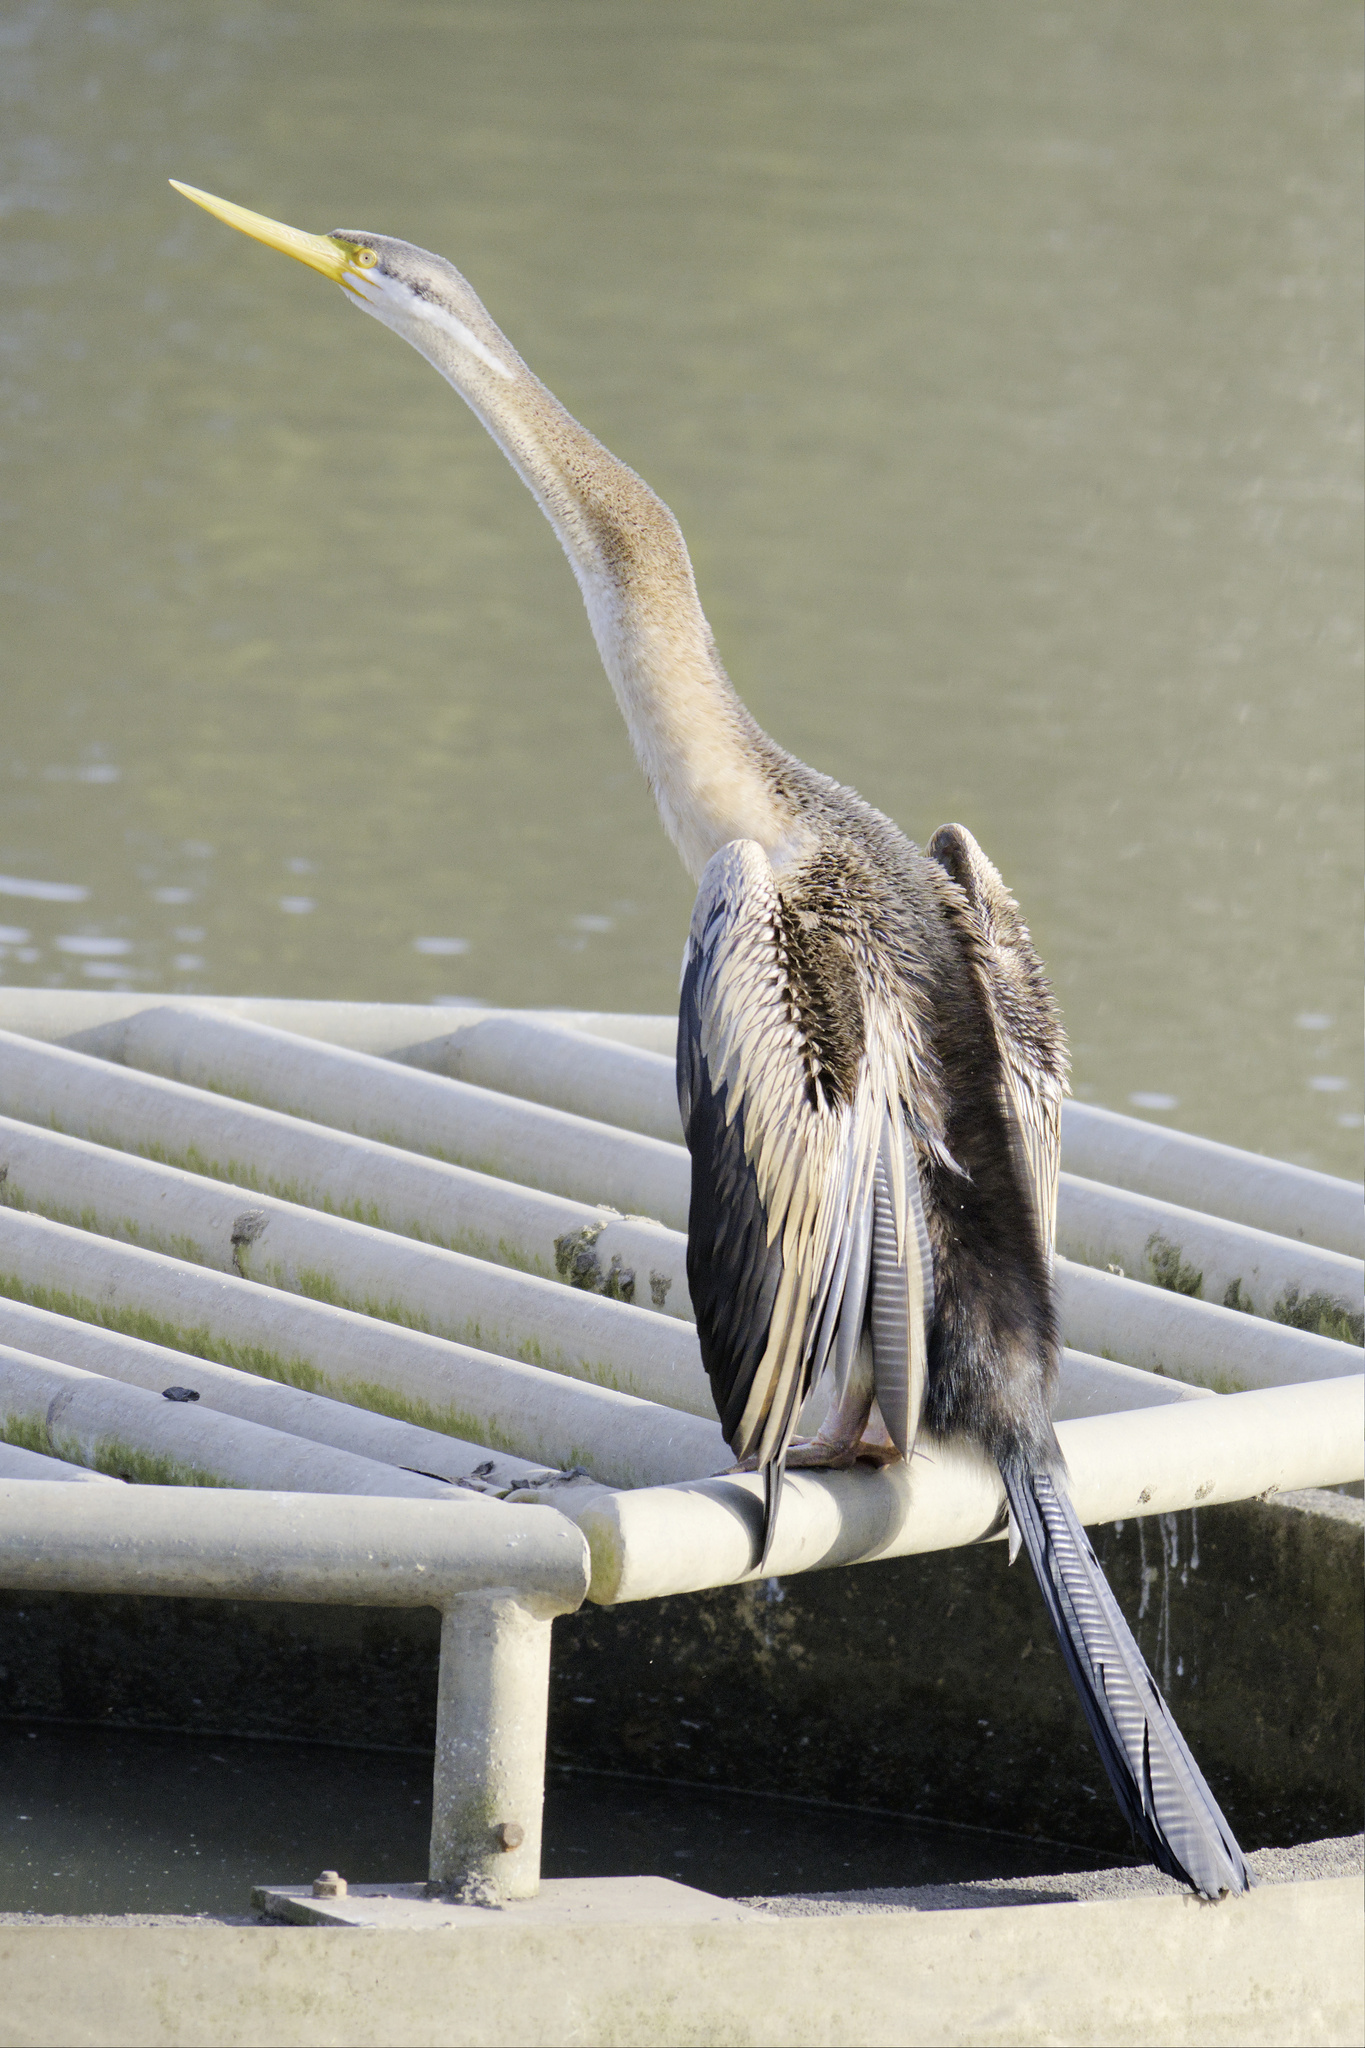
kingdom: Animalia
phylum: Chordata
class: Aves
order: Suliformes
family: Anhingidae
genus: Anhinga
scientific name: Anhinga novaehollandiae
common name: Australasian darter
